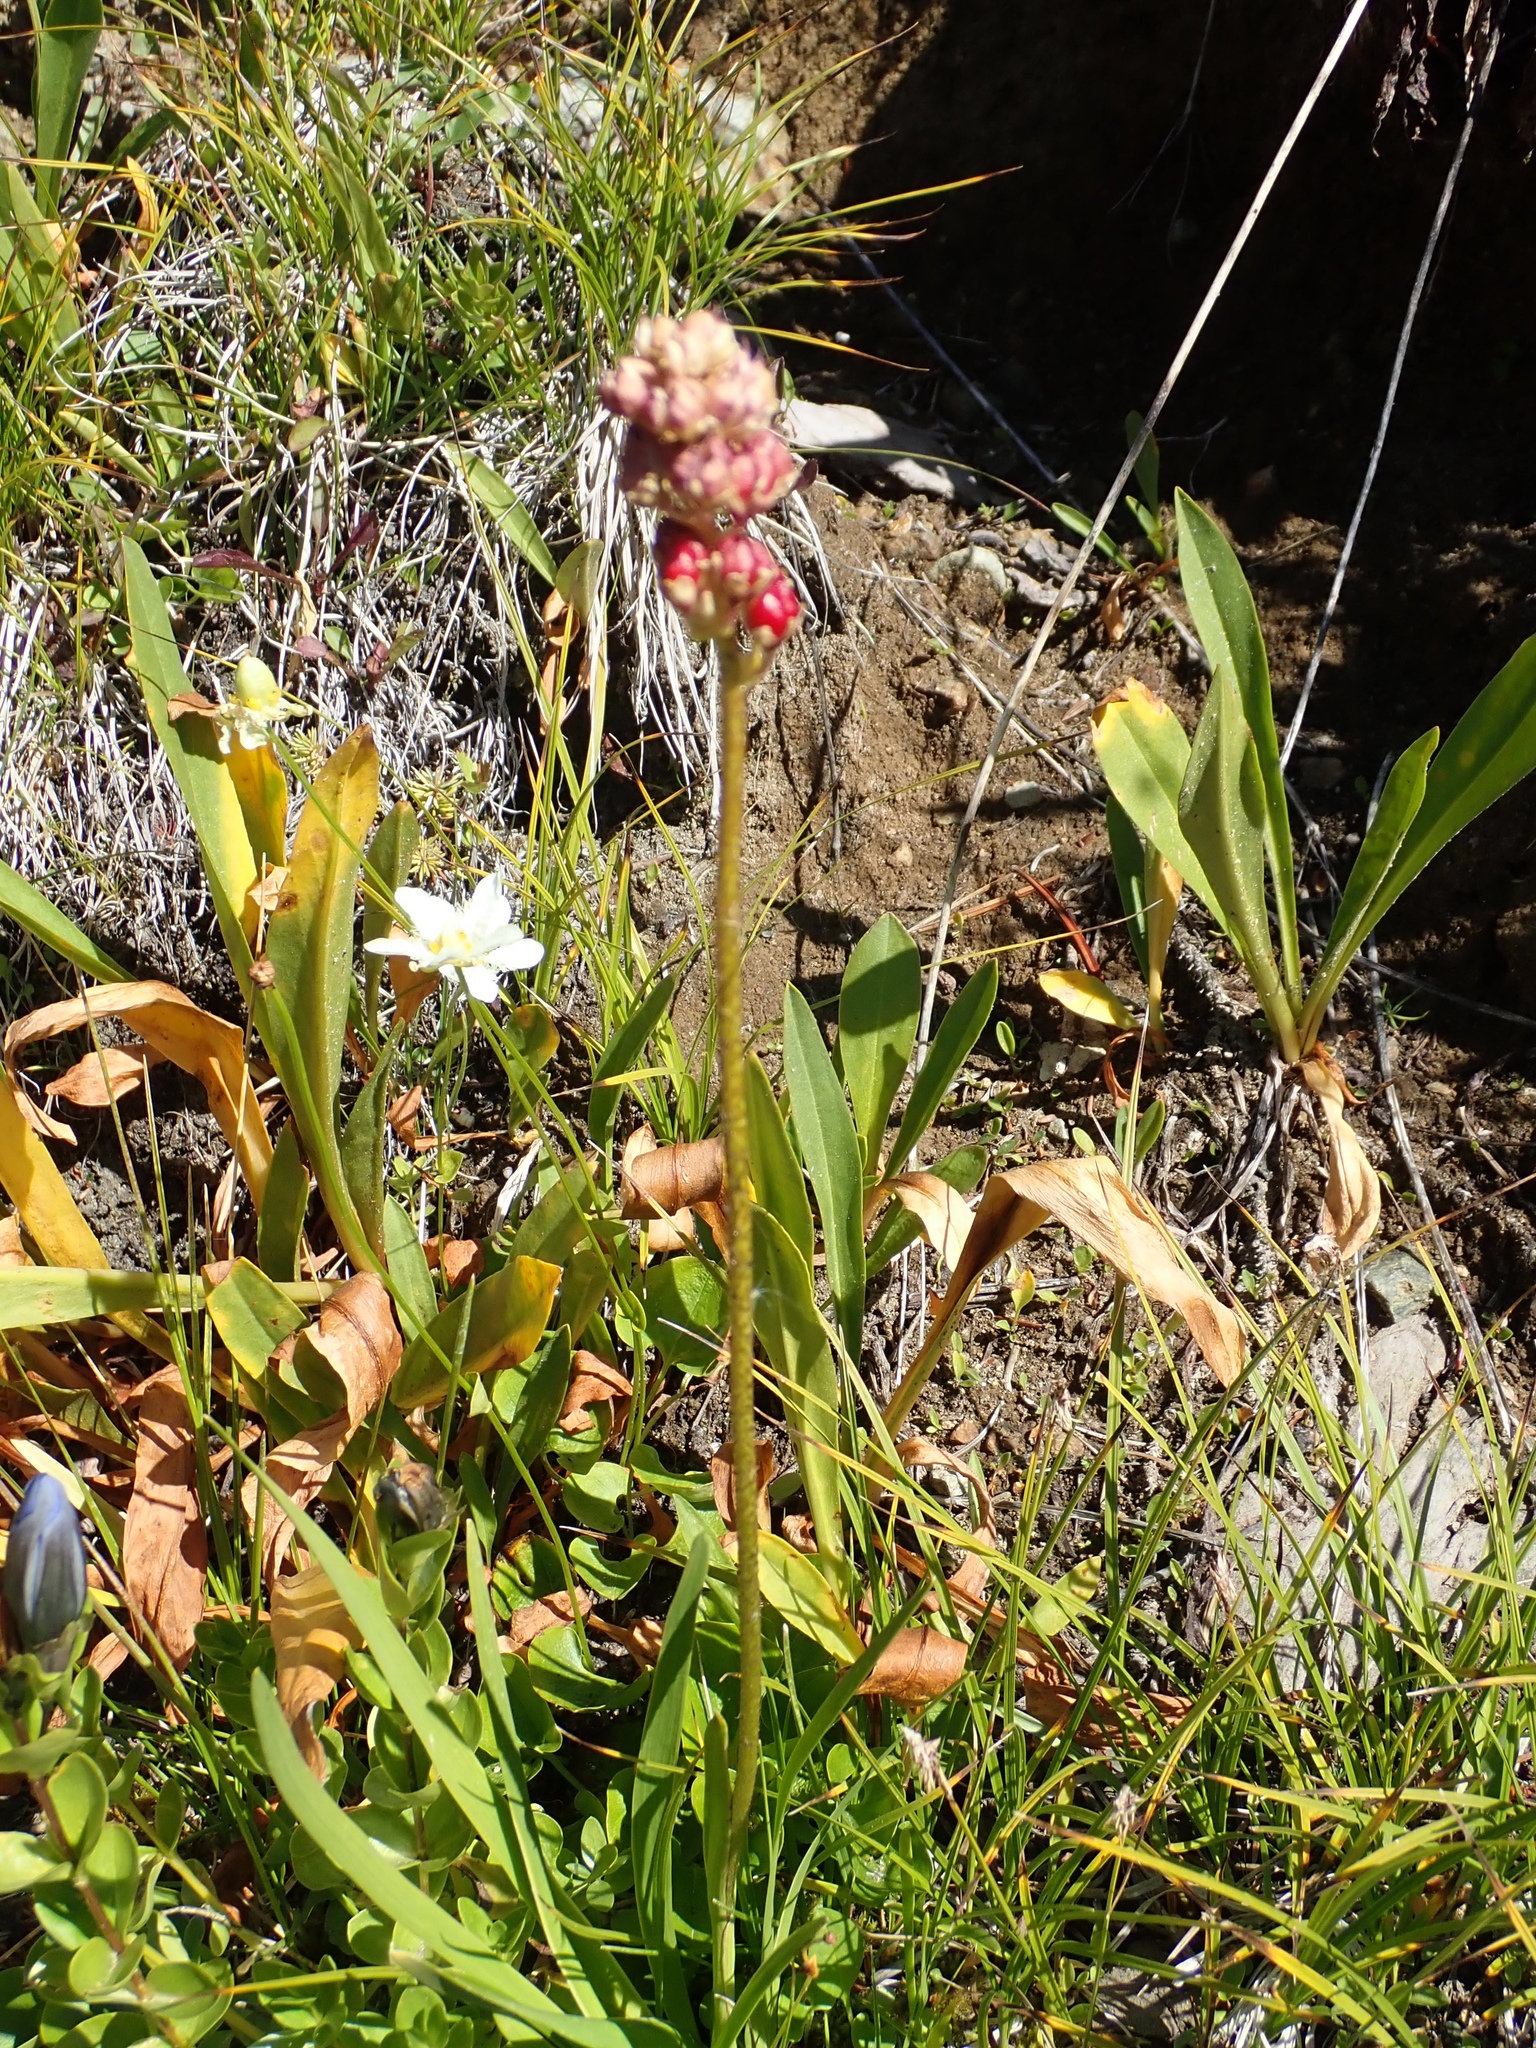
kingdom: Plantae
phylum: Tracheophyta
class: Liliopsida
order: Alismatales
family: Tofieldiaceae
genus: Triantha
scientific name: Triantha occidentalis
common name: Western false asphodel
